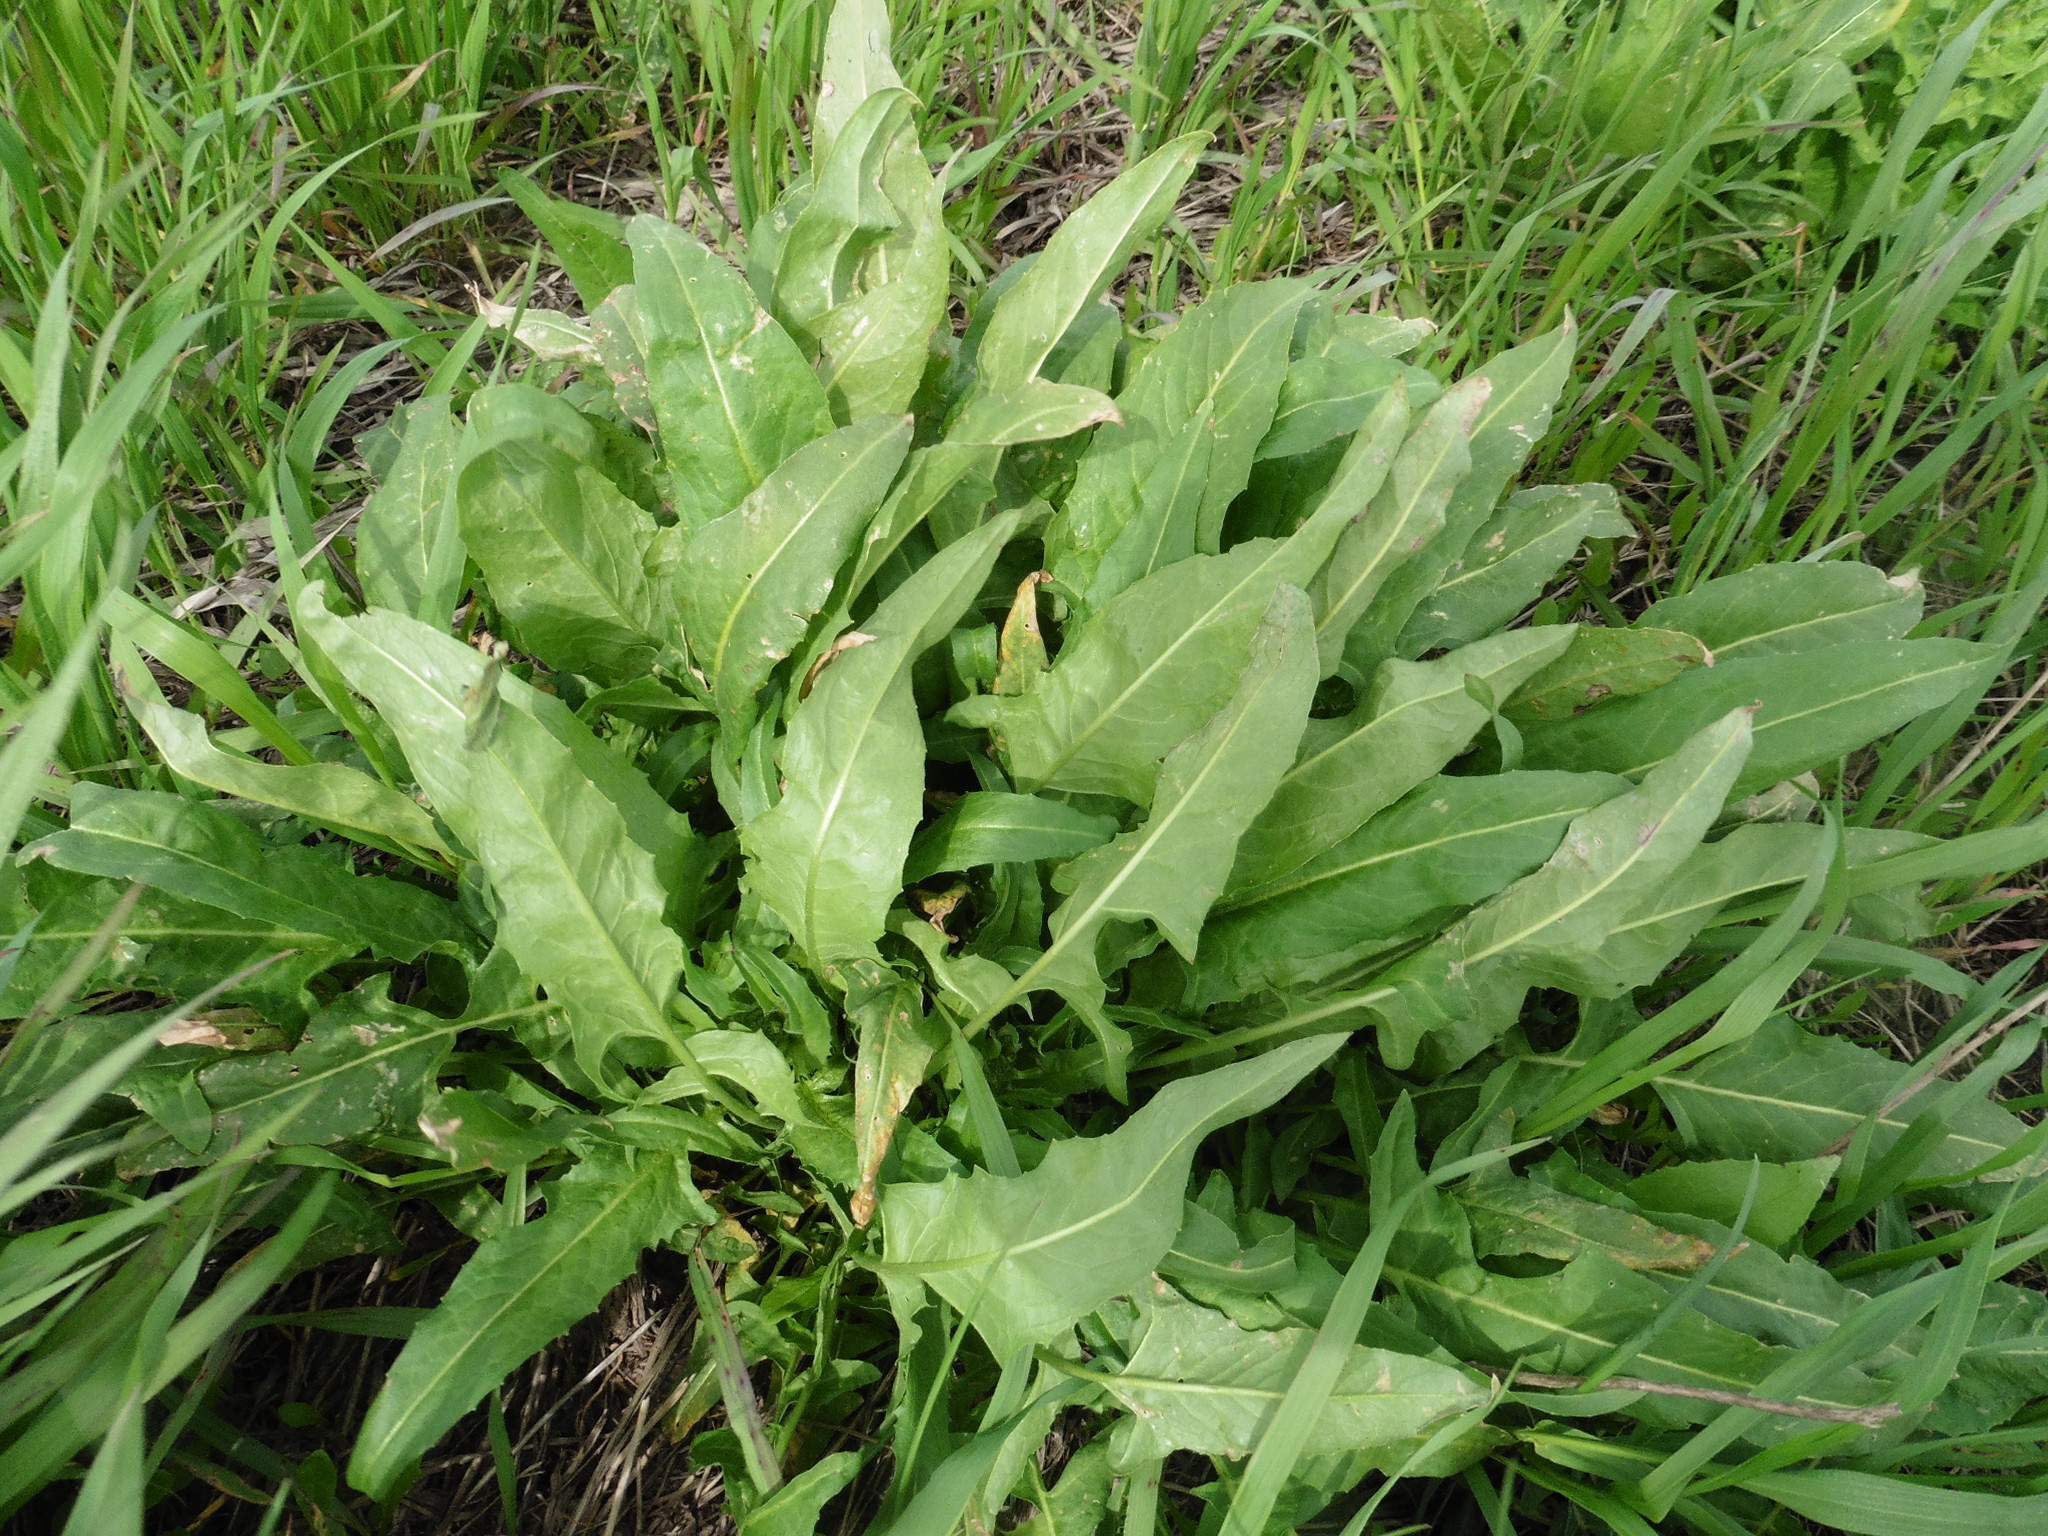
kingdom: Plantae
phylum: Tracheophyta
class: Magnoliopsida
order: Brassicales
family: Brassicaceae
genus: Bunias
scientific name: Bunias orientalis
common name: Warty-cabbage
